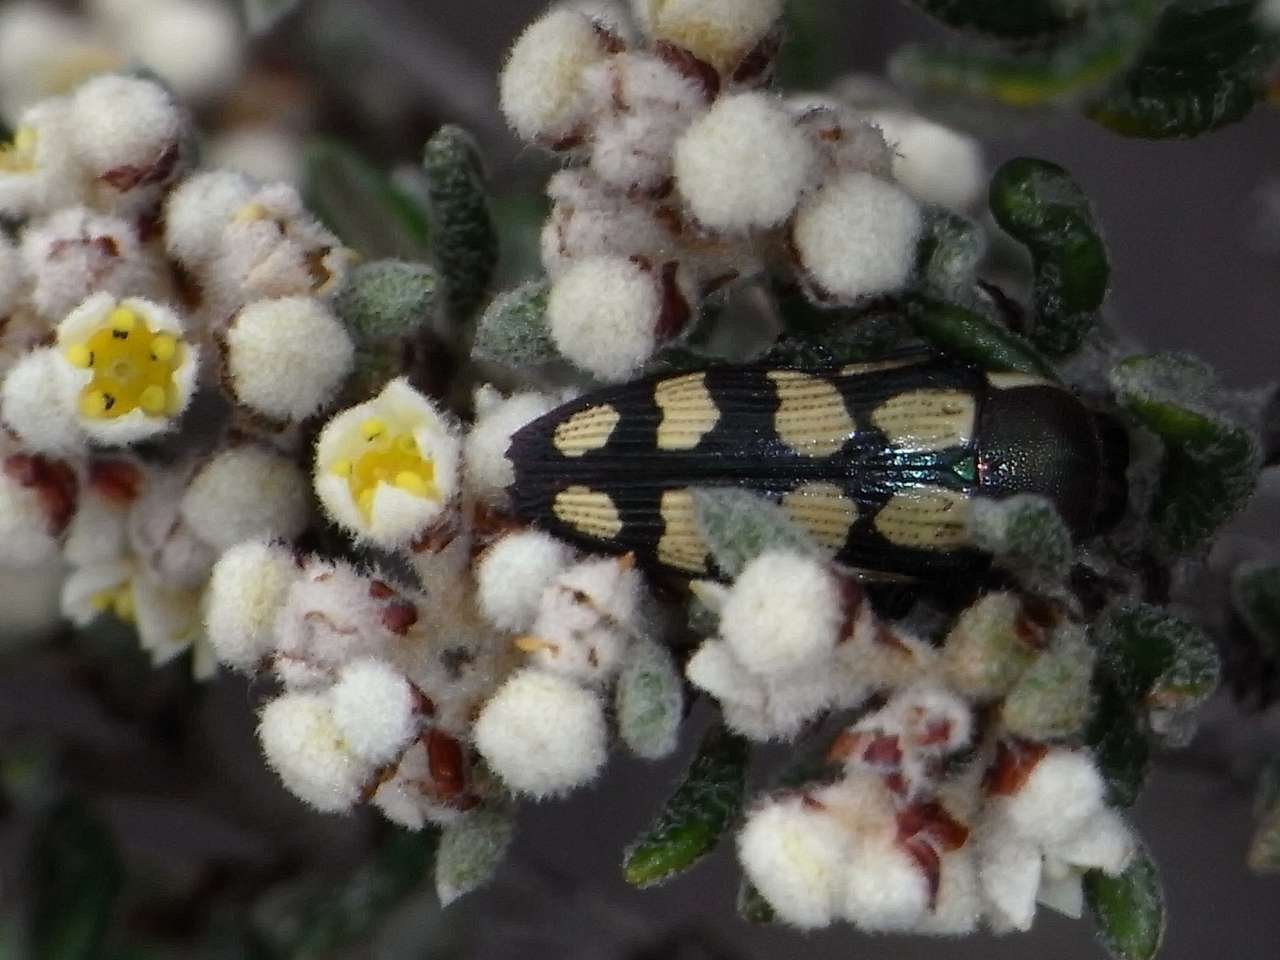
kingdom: Animalia
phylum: Arthropoda
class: Insecta
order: Coleoptera
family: Buprestidae
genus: Castiarina
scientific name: Castiarina decemmaculata
